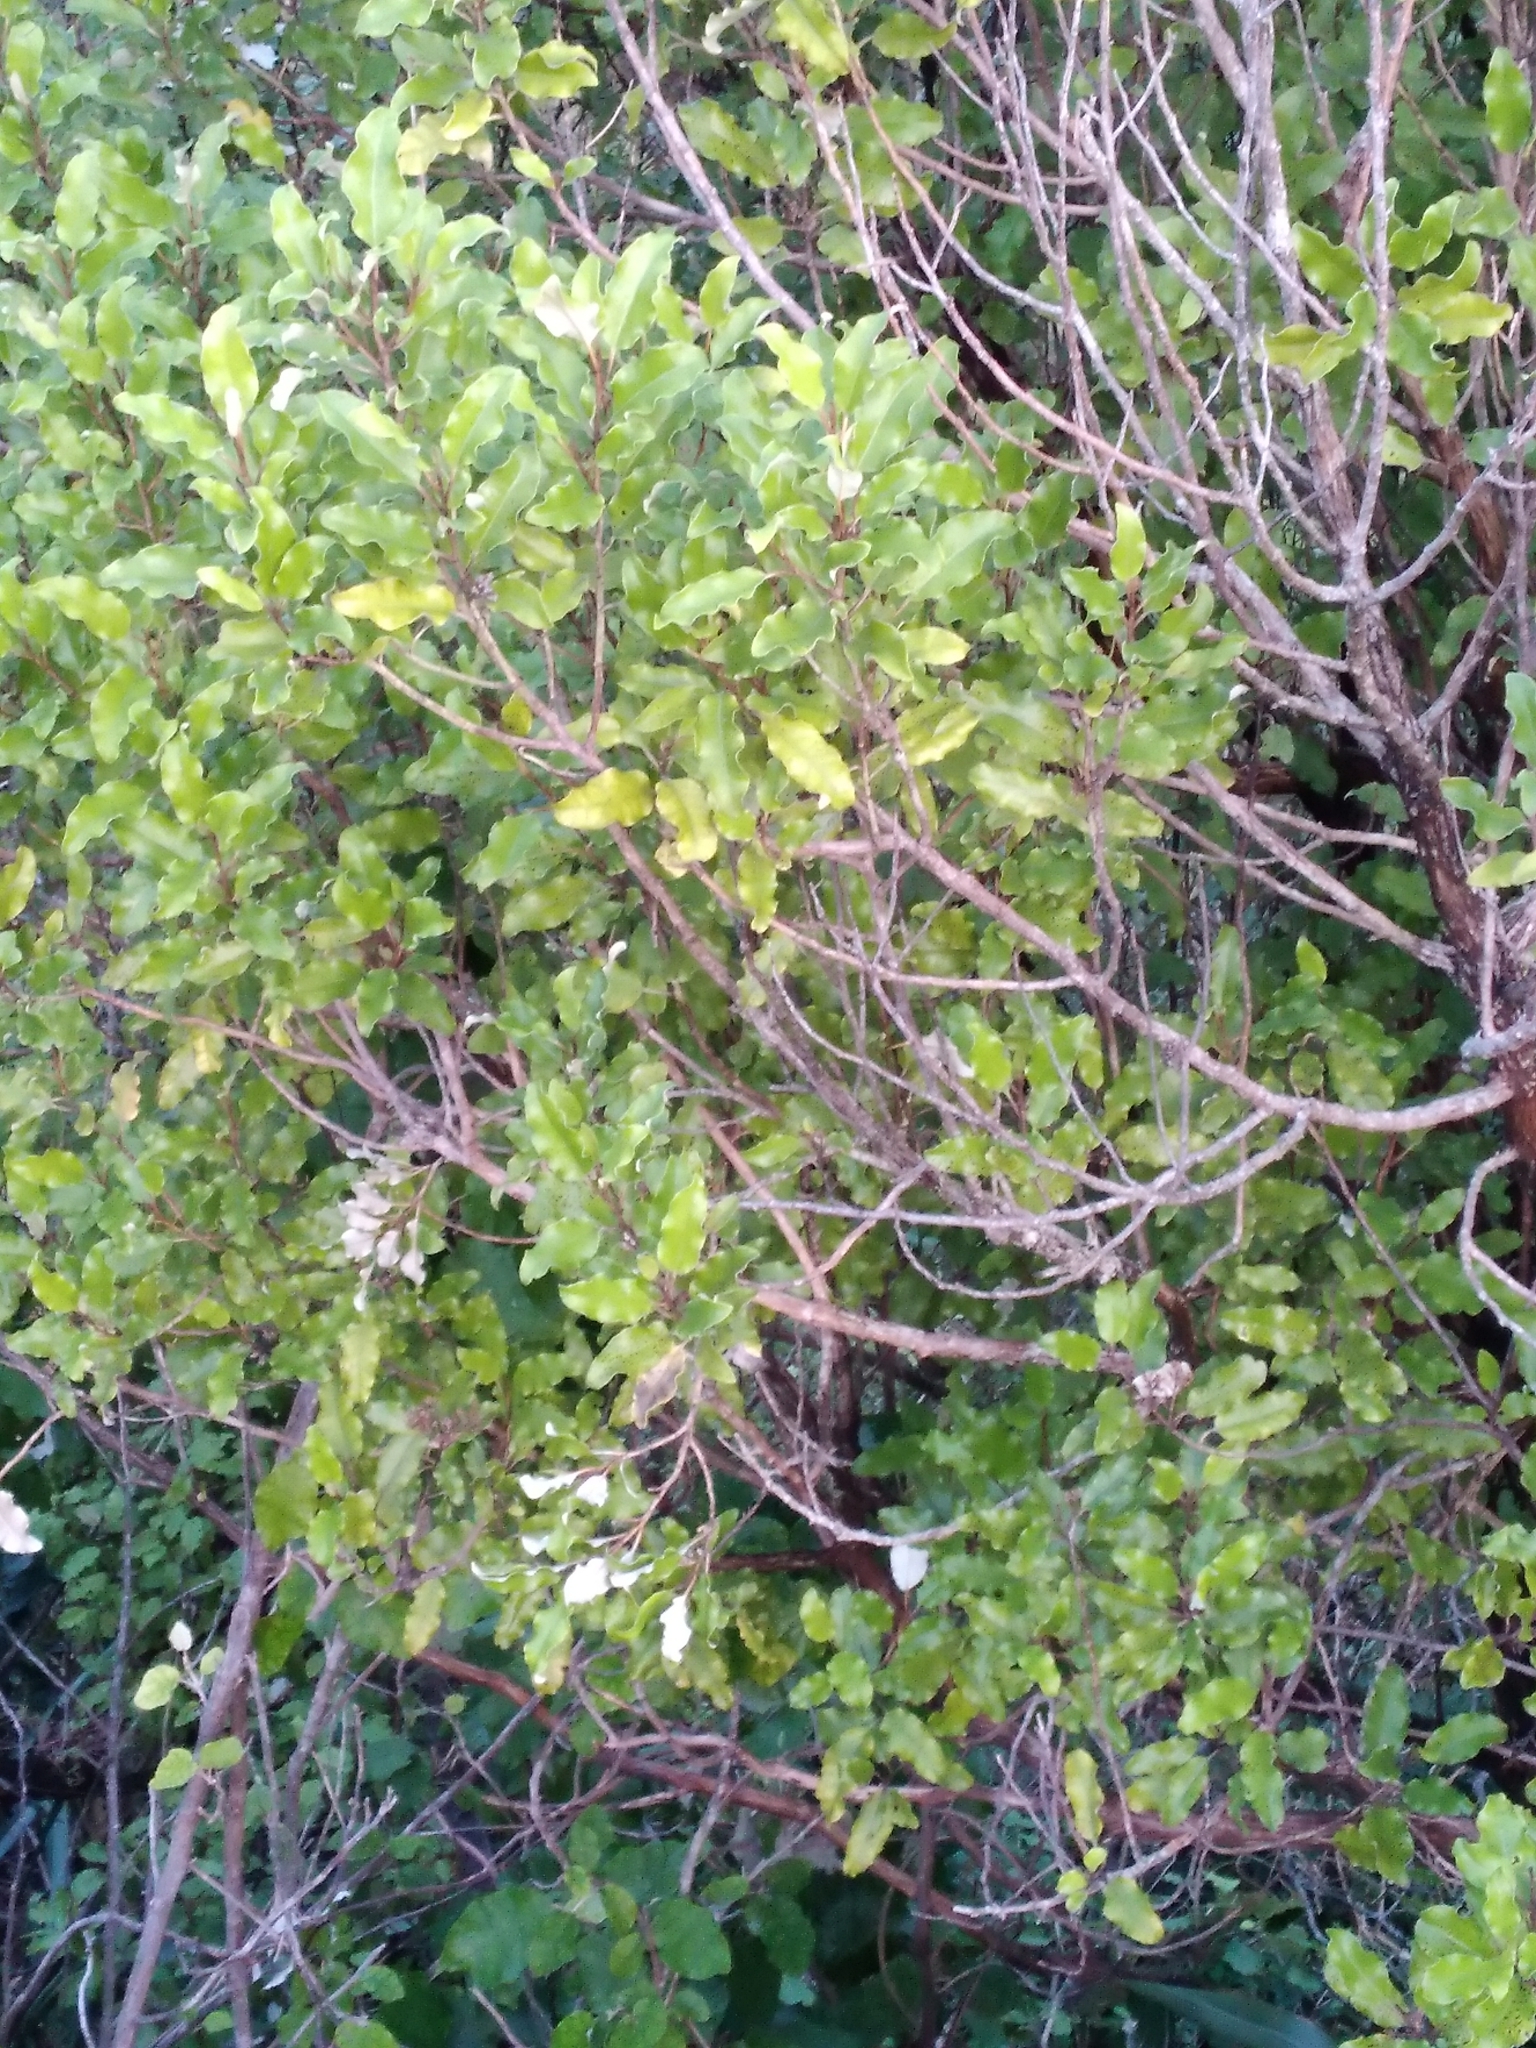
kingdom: Plantae
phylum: Tracheophyta
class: Magnoliopsida
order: Asterales
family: Asteraceae
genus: Olearia
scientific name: Olearia paniculata
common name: Akiraho
